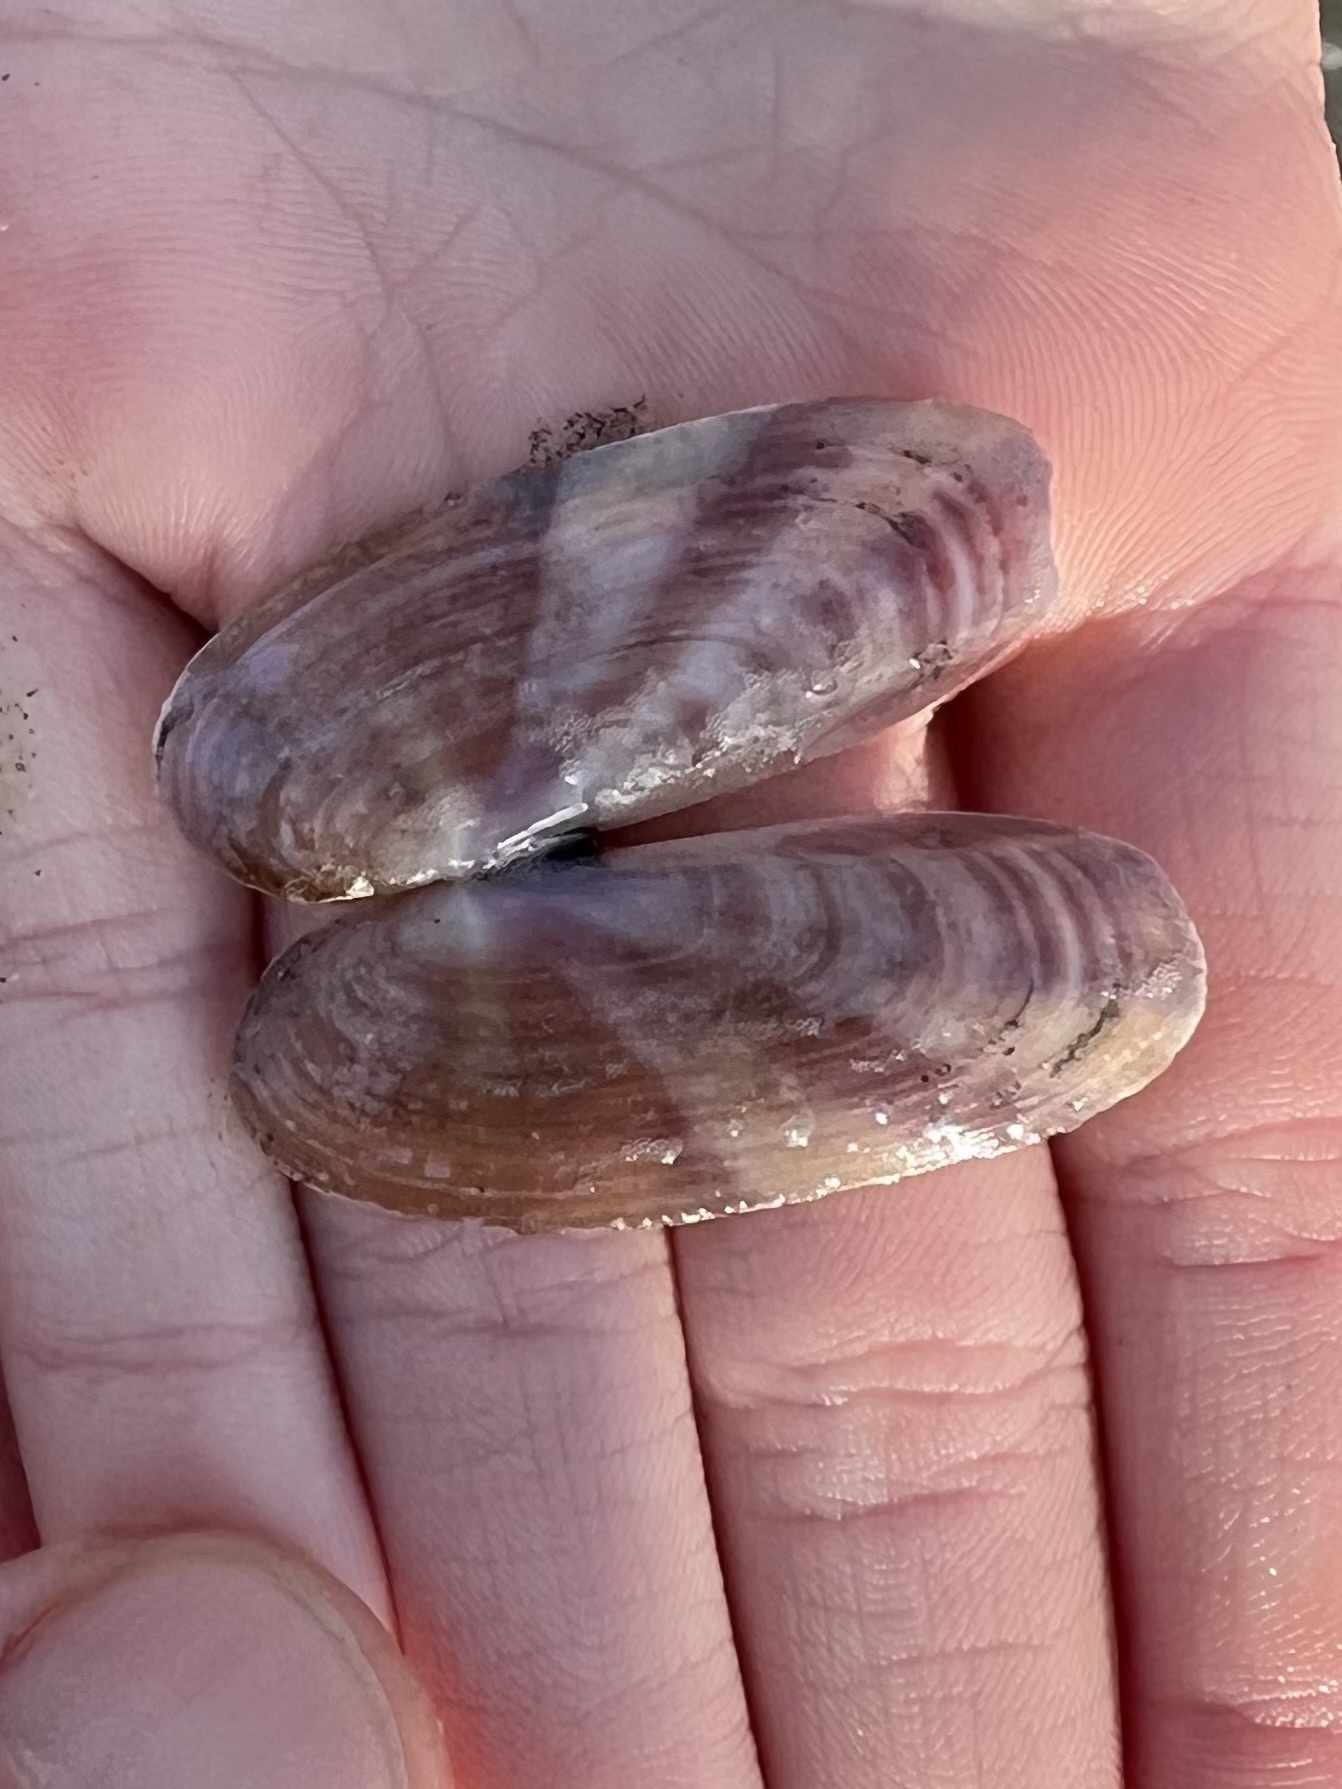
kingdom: Animalia
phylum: Mollusca
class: Bivalvia
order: Adapedonta
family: Pharidae
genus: Siliqua
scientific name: Siliqua patula
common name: Pacific razor clam
